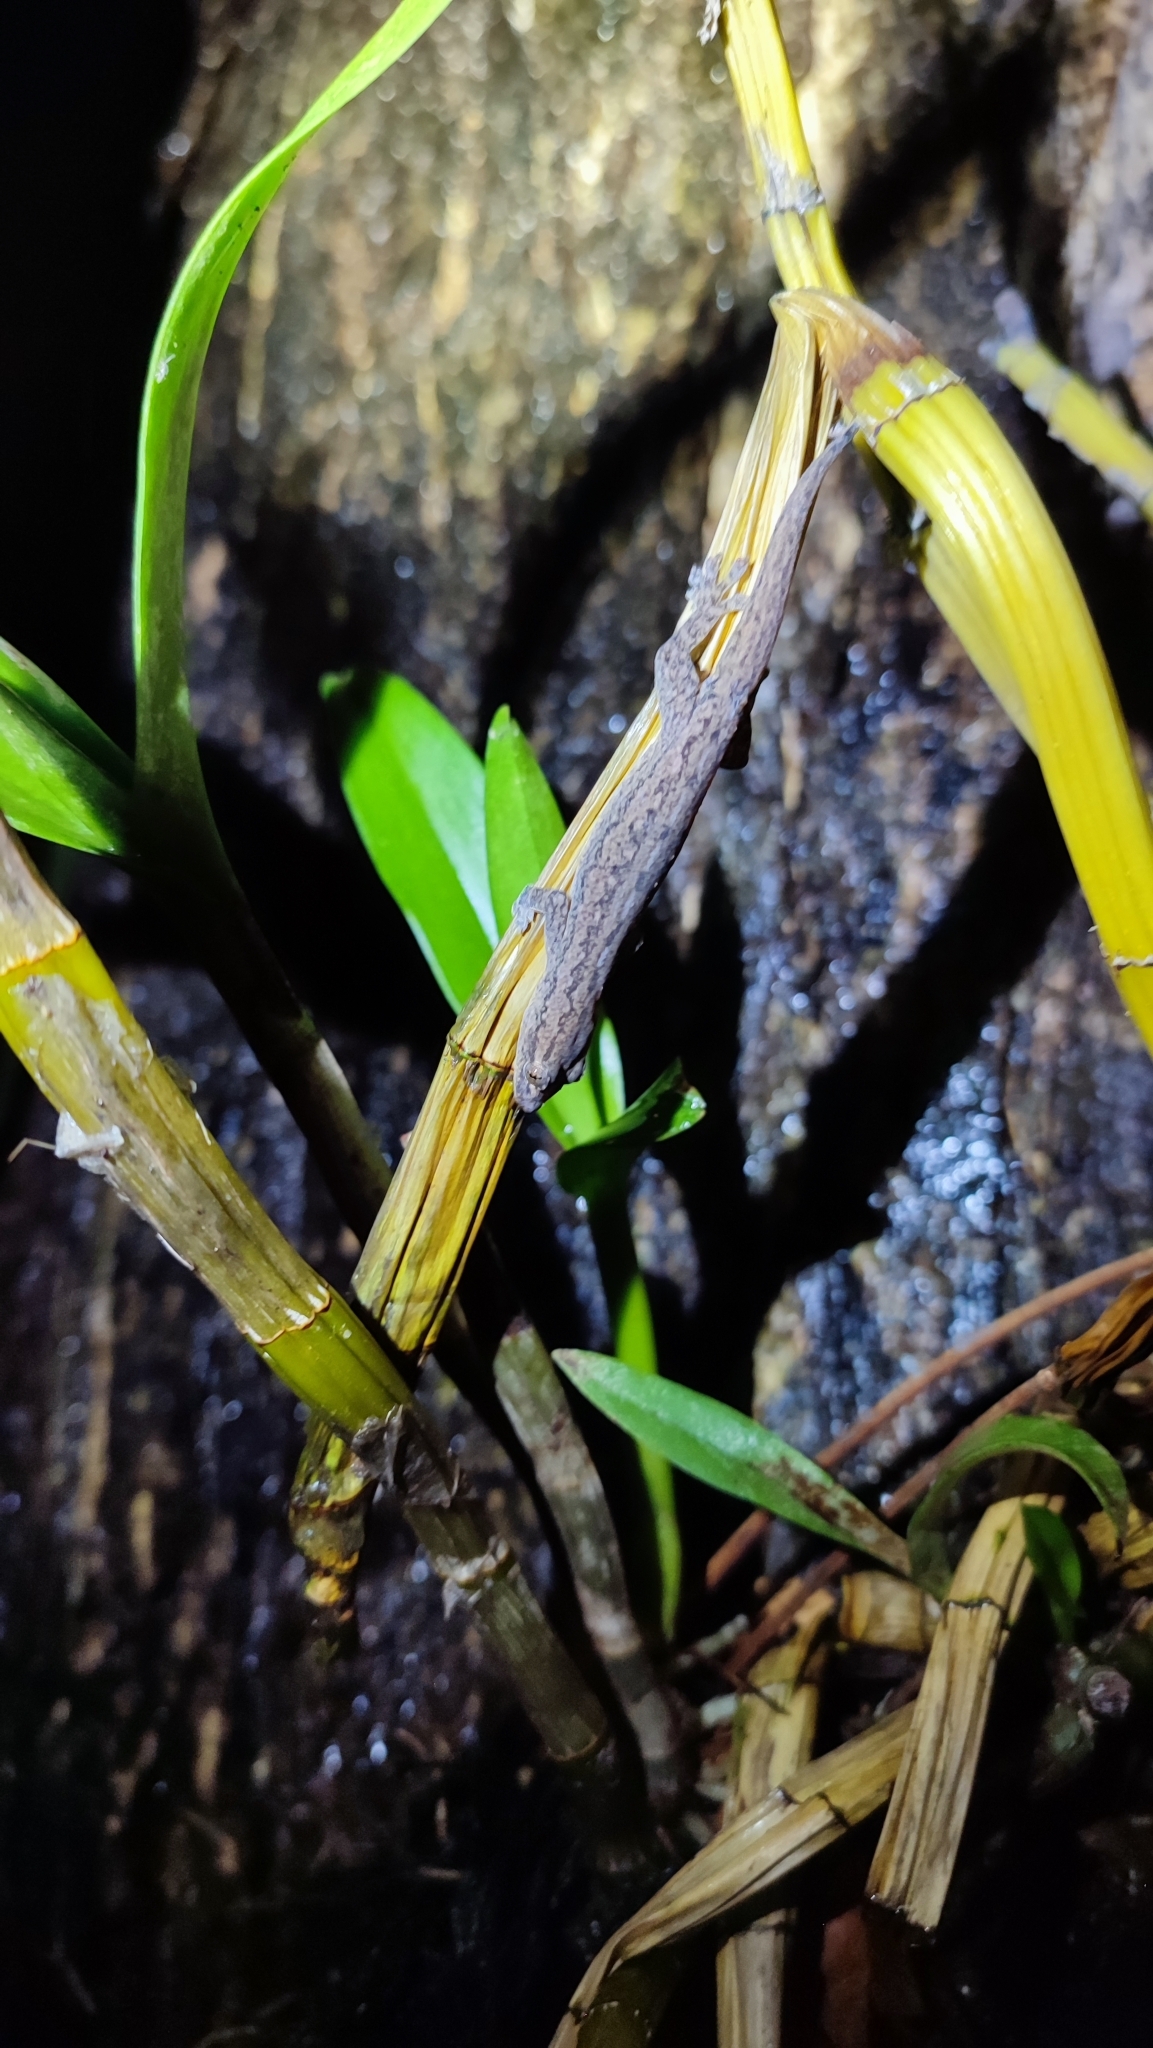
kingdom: Animalia
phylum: Chordata
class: Squamata
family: Gekkonidae
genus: Hemidactylus
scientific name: Hemidactylus frenatus
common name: Common house gecko
